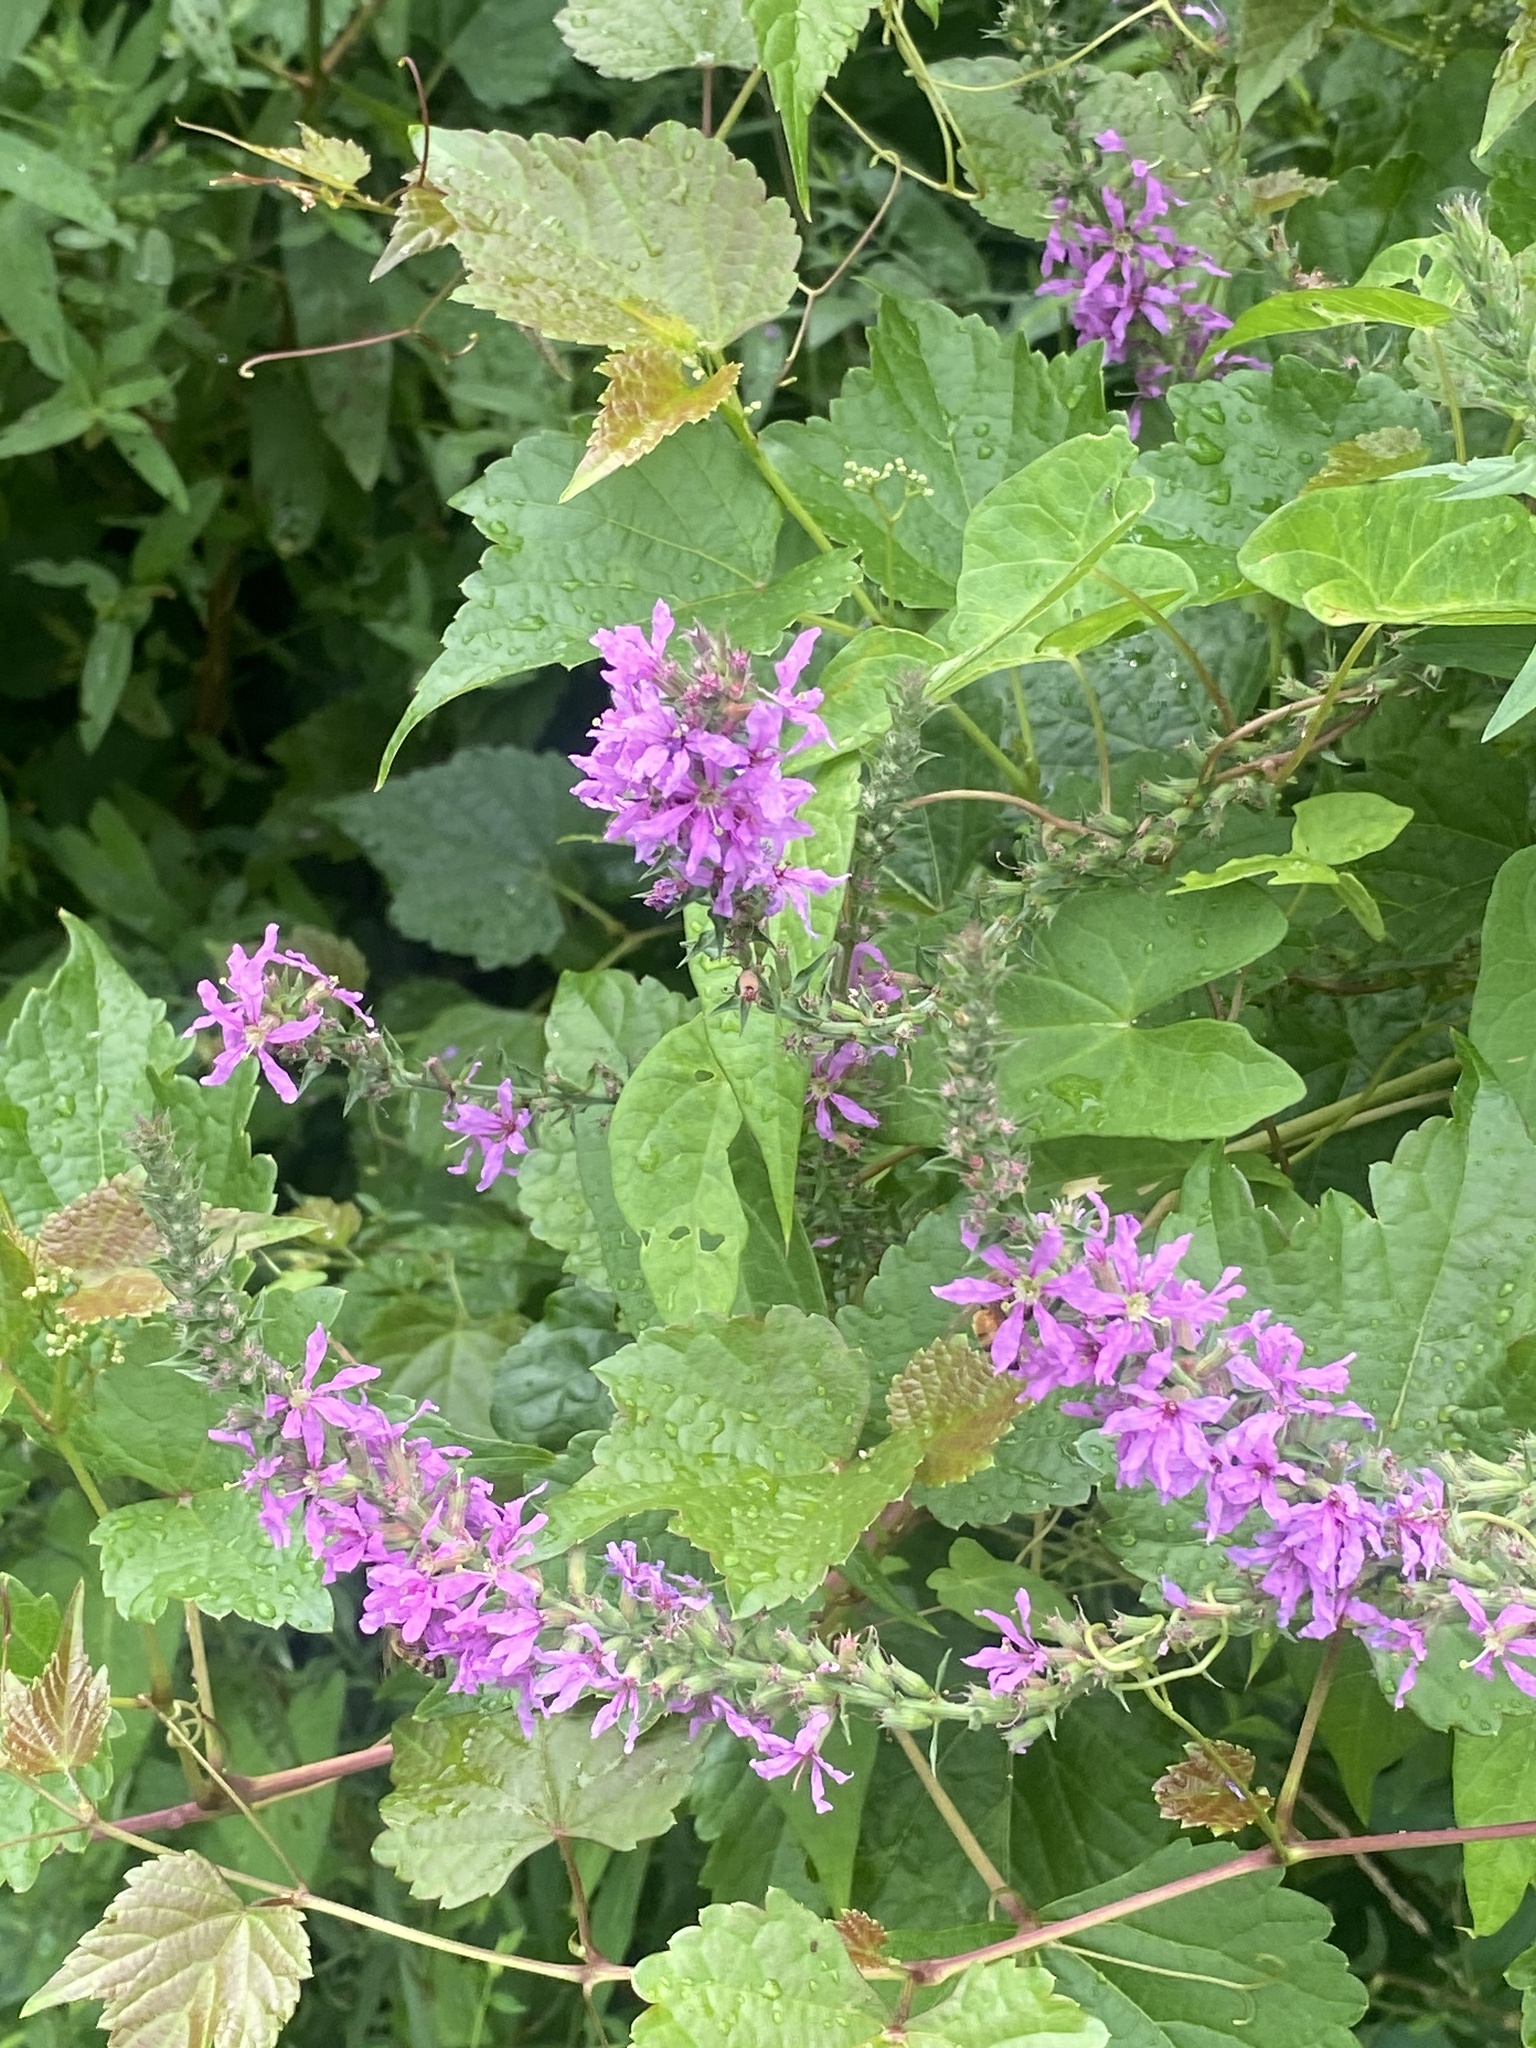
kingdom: Plantae
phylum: Tracheophyta
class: Magnoliopsida
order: Myrtales
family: Lythraceae
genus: Lythrum
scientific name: Lythrum salicaria
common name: Purple loosestrife
